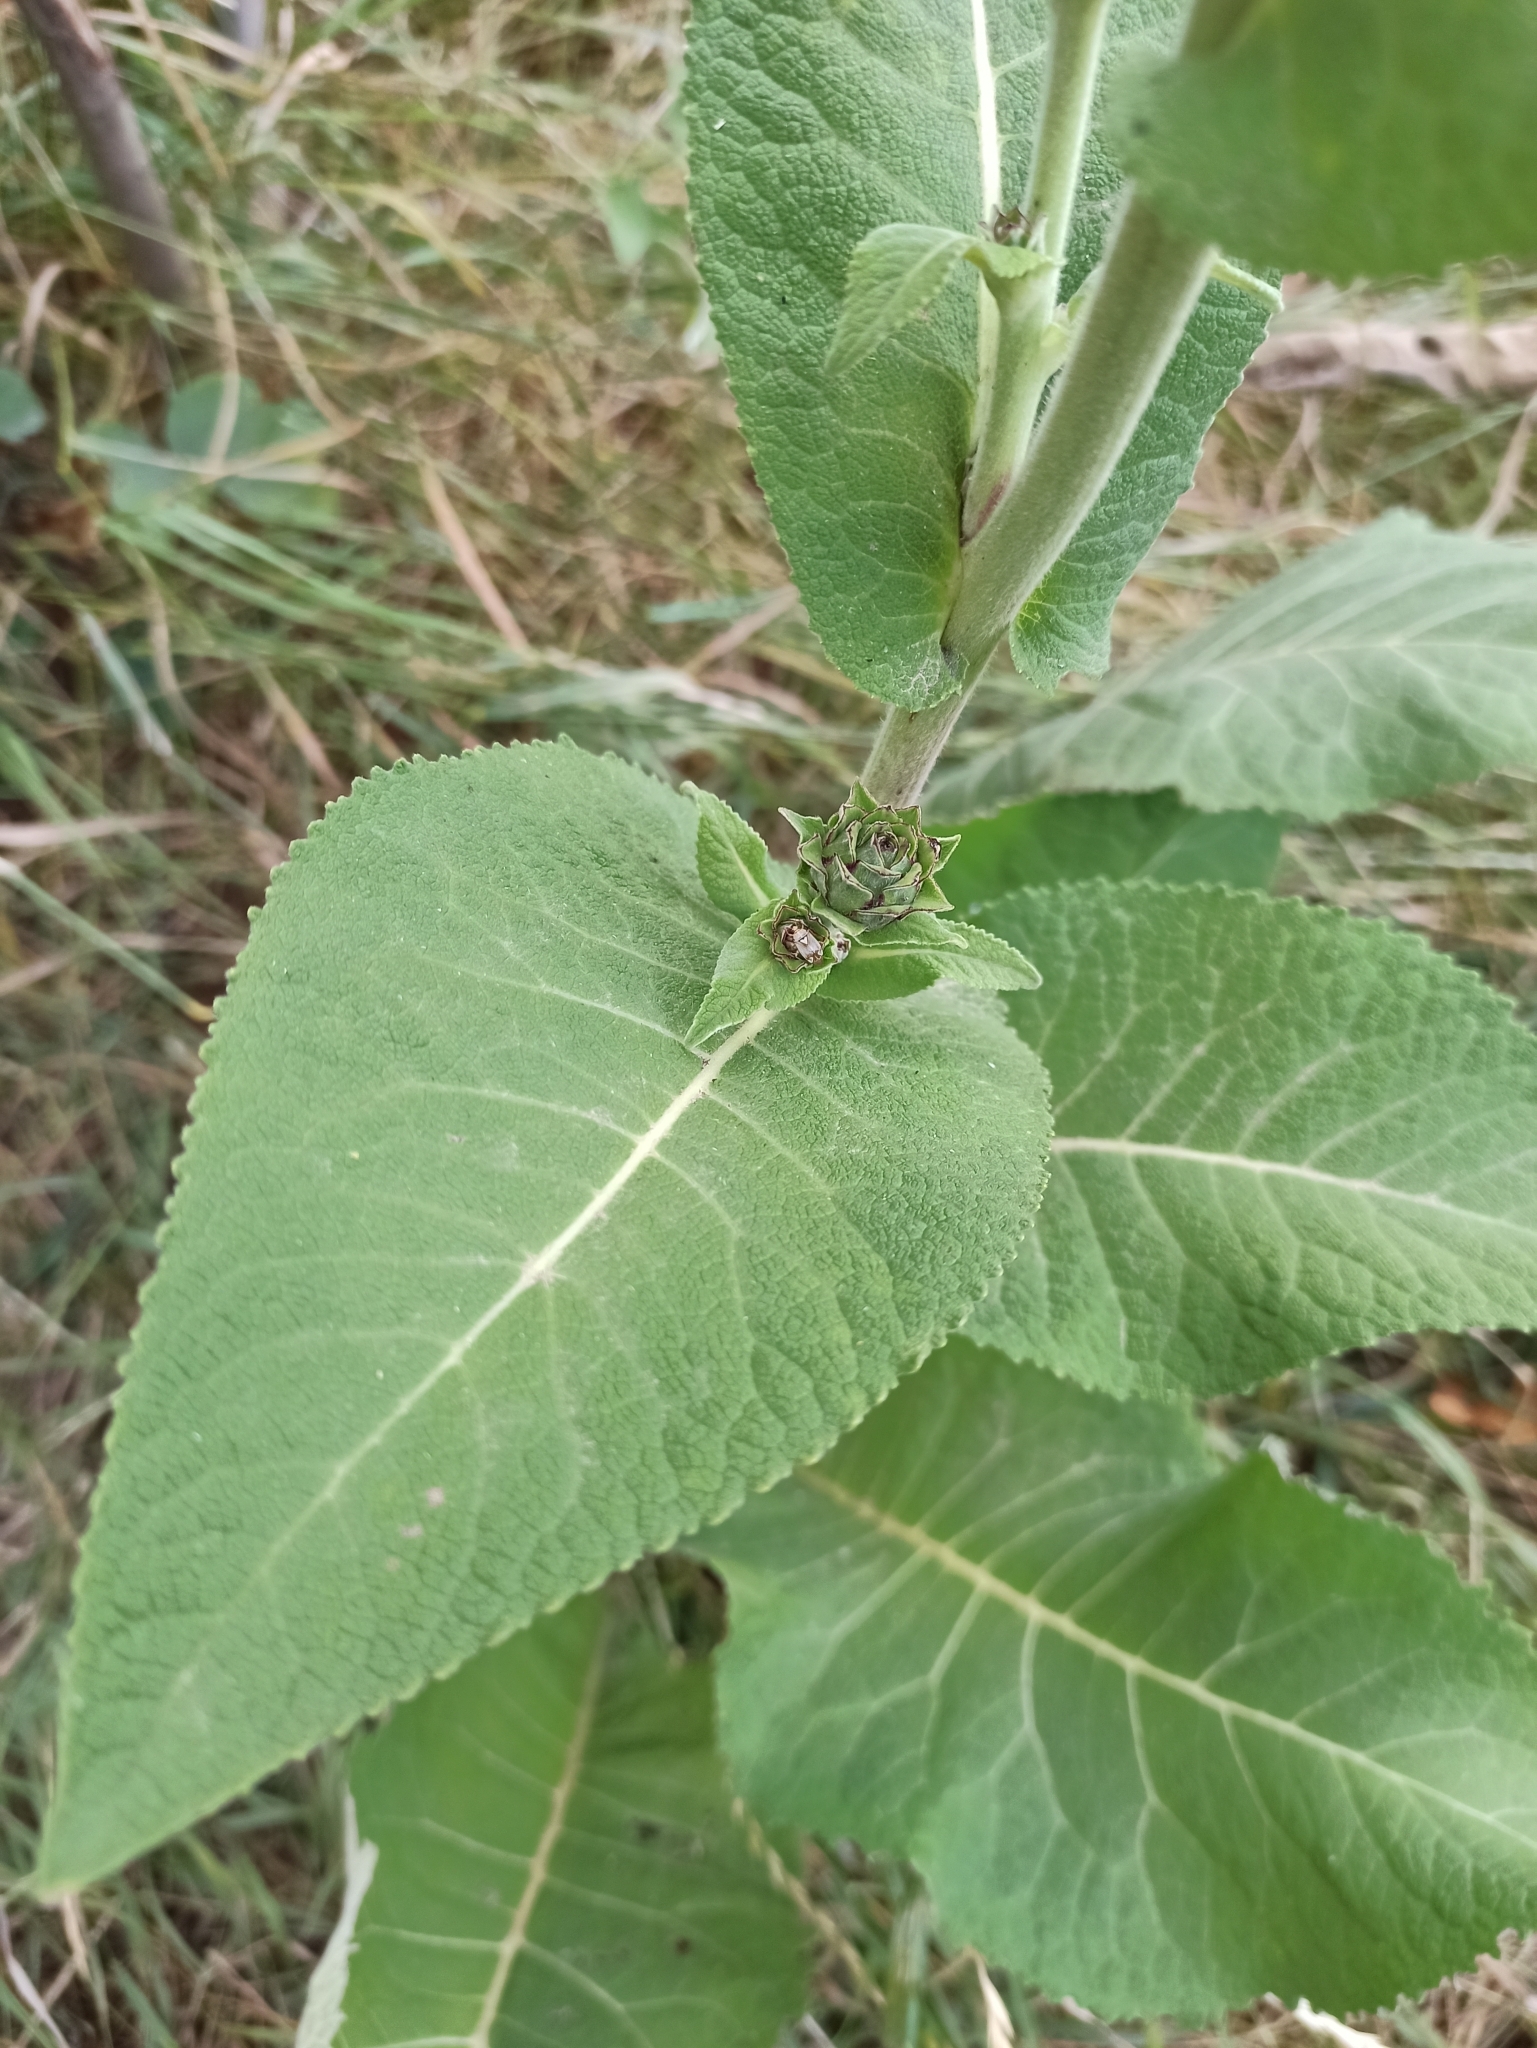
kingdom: Plantae
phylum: Tracheophyta
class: Magnoliopsida
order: Asterales
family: Asteraceae
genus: Inula
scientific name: Inula helenium
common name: Elecampane
